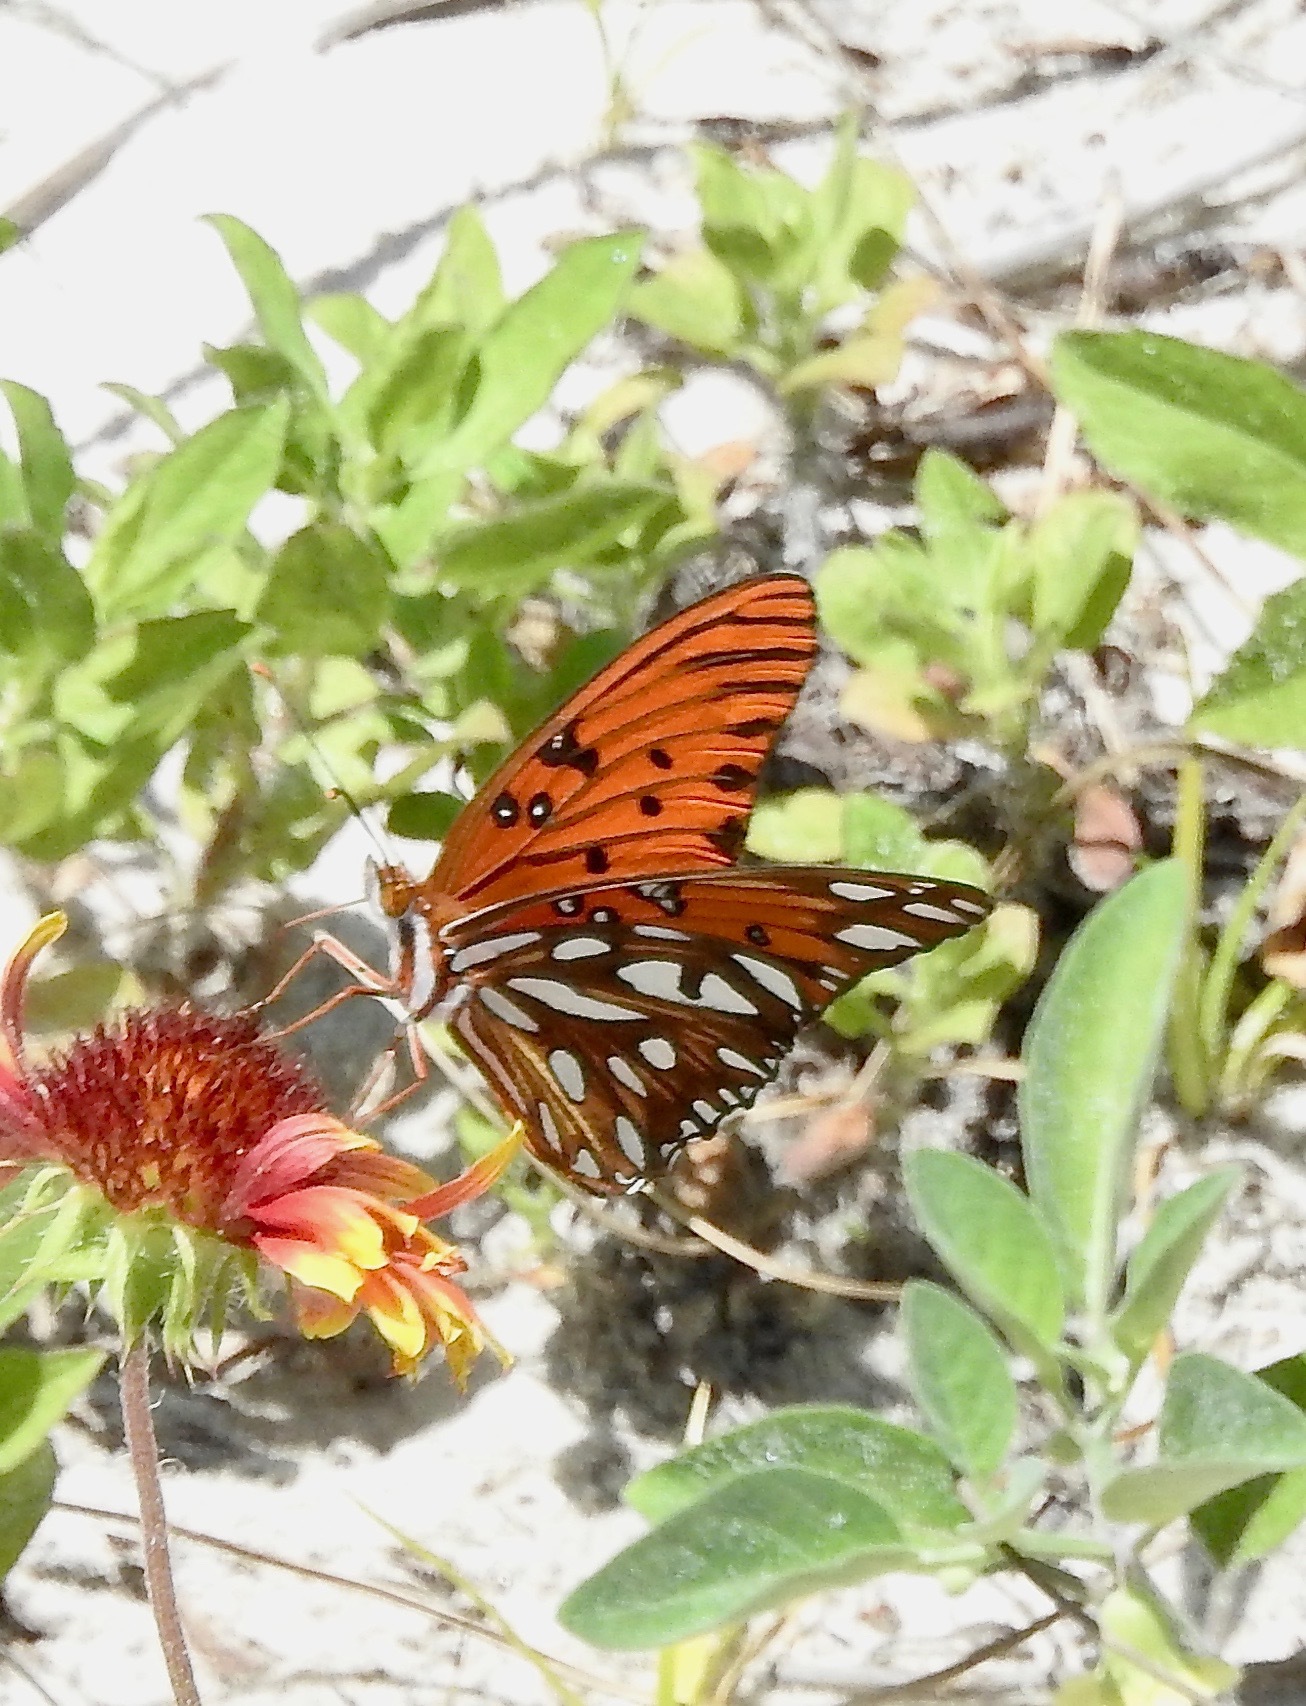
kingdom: Animalia
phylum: Arthropoda
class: Insecta
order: Lepidoptera
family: Nymphalidae
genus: Dione
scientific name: Dione vanillae
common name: Gulf fritillary
